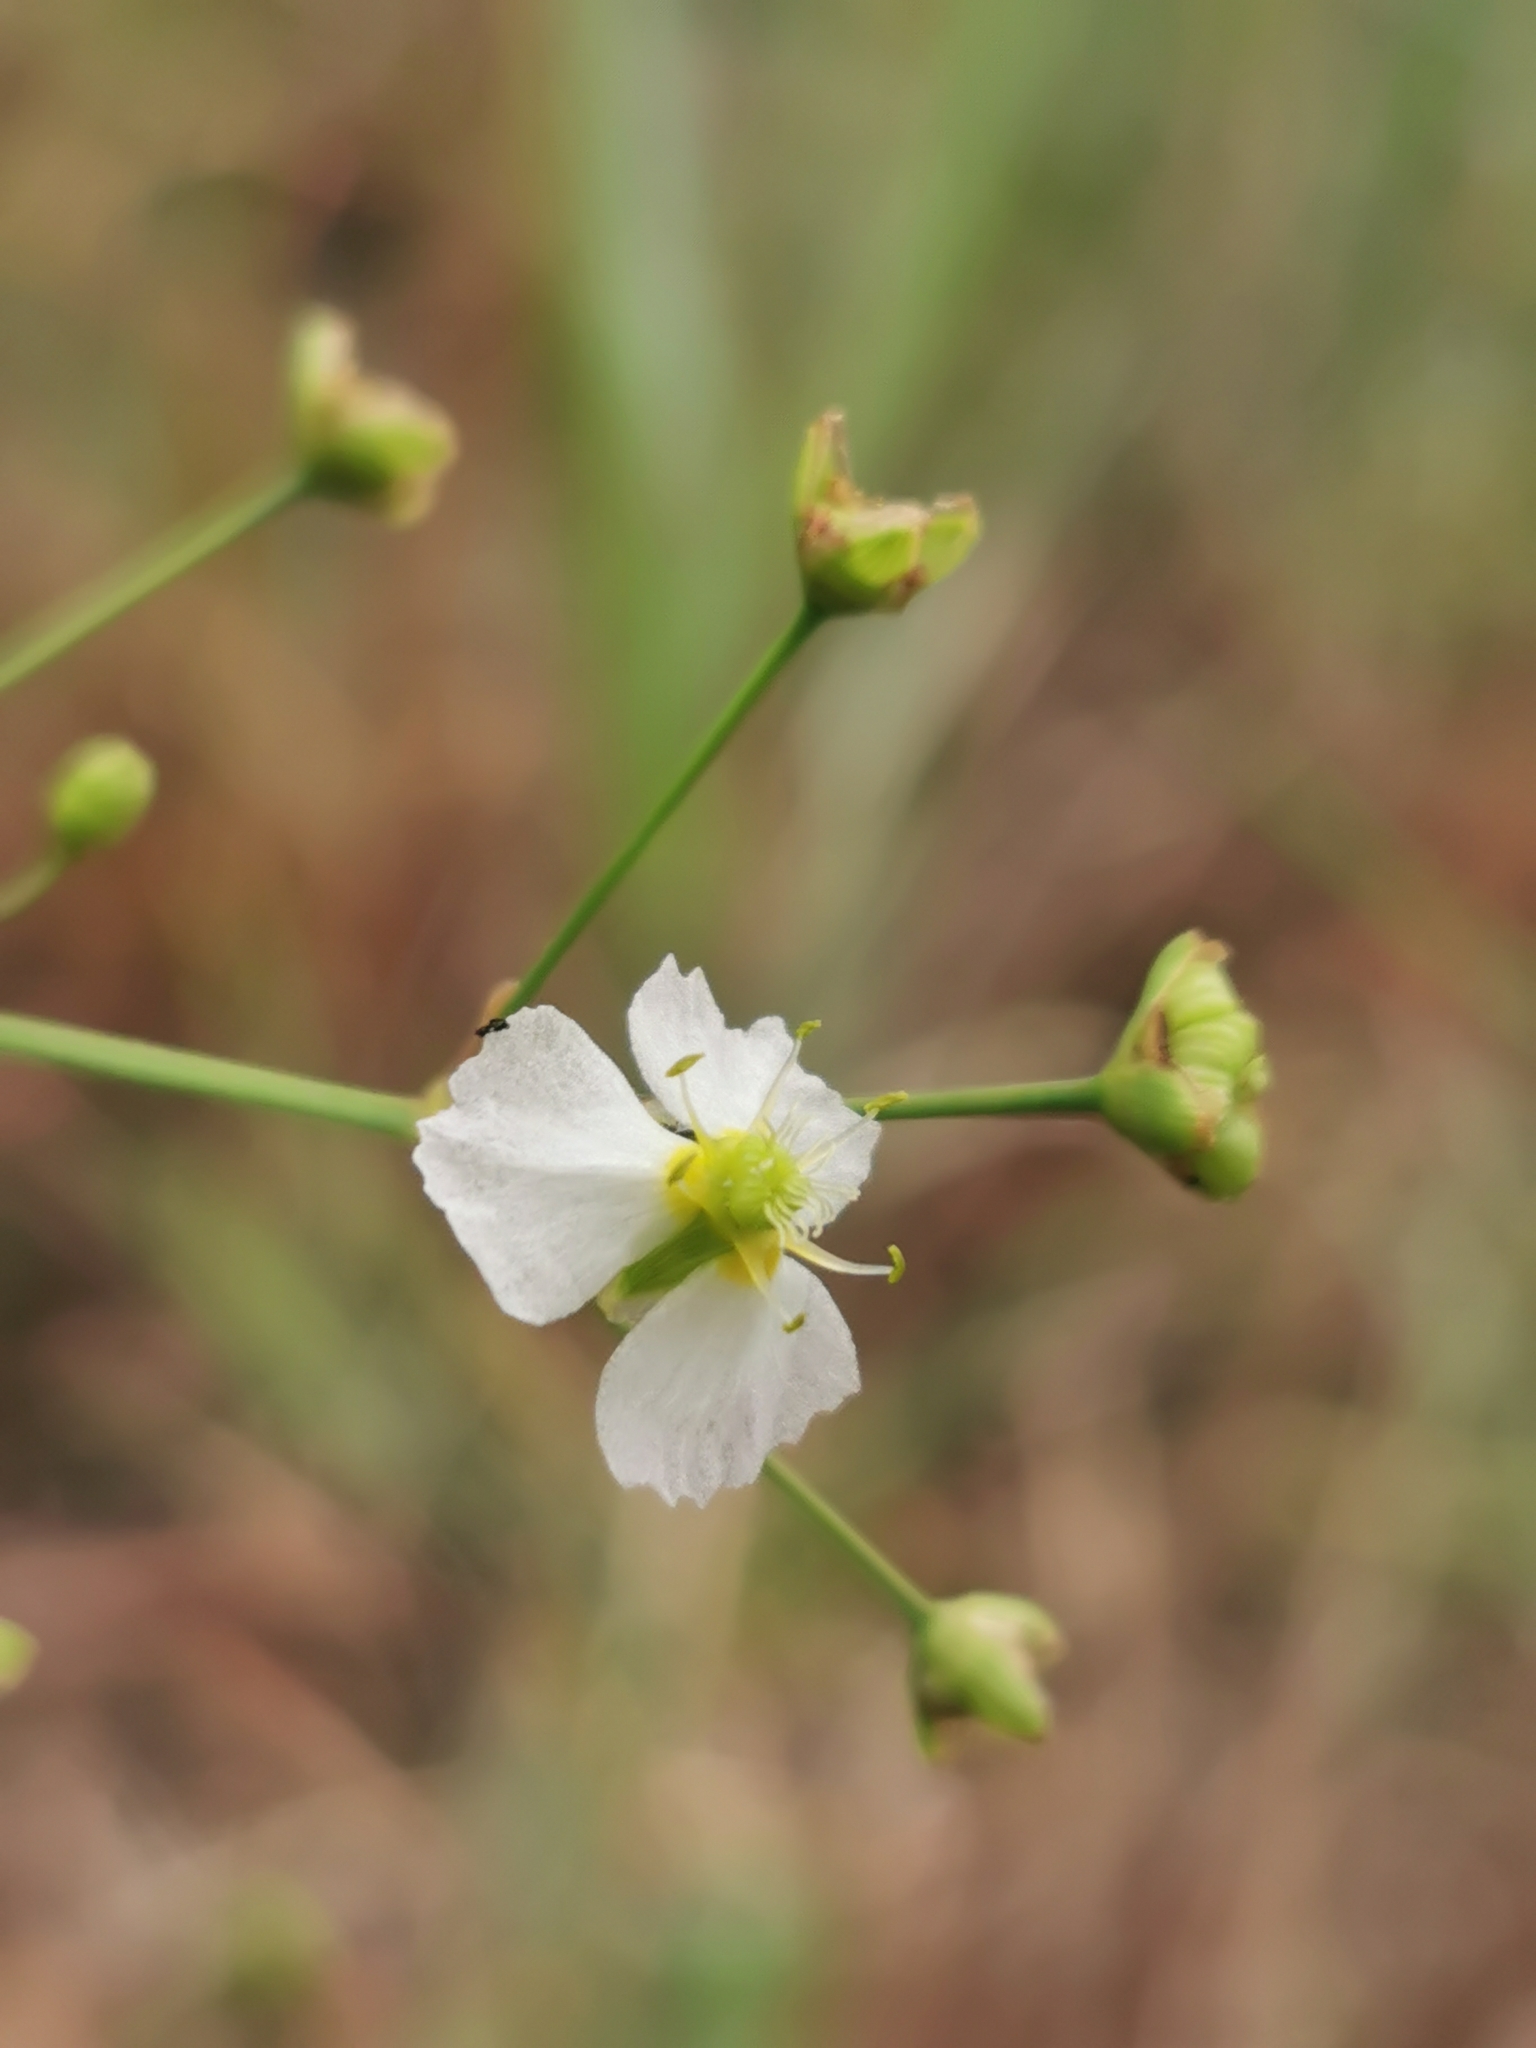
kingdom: Plantae
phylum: Tracheophyta
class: Liliopsida
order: Alismatales
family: Alismataceae
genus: Alisma
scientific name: Alisma plantago-aquatica
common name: Water-plantain
